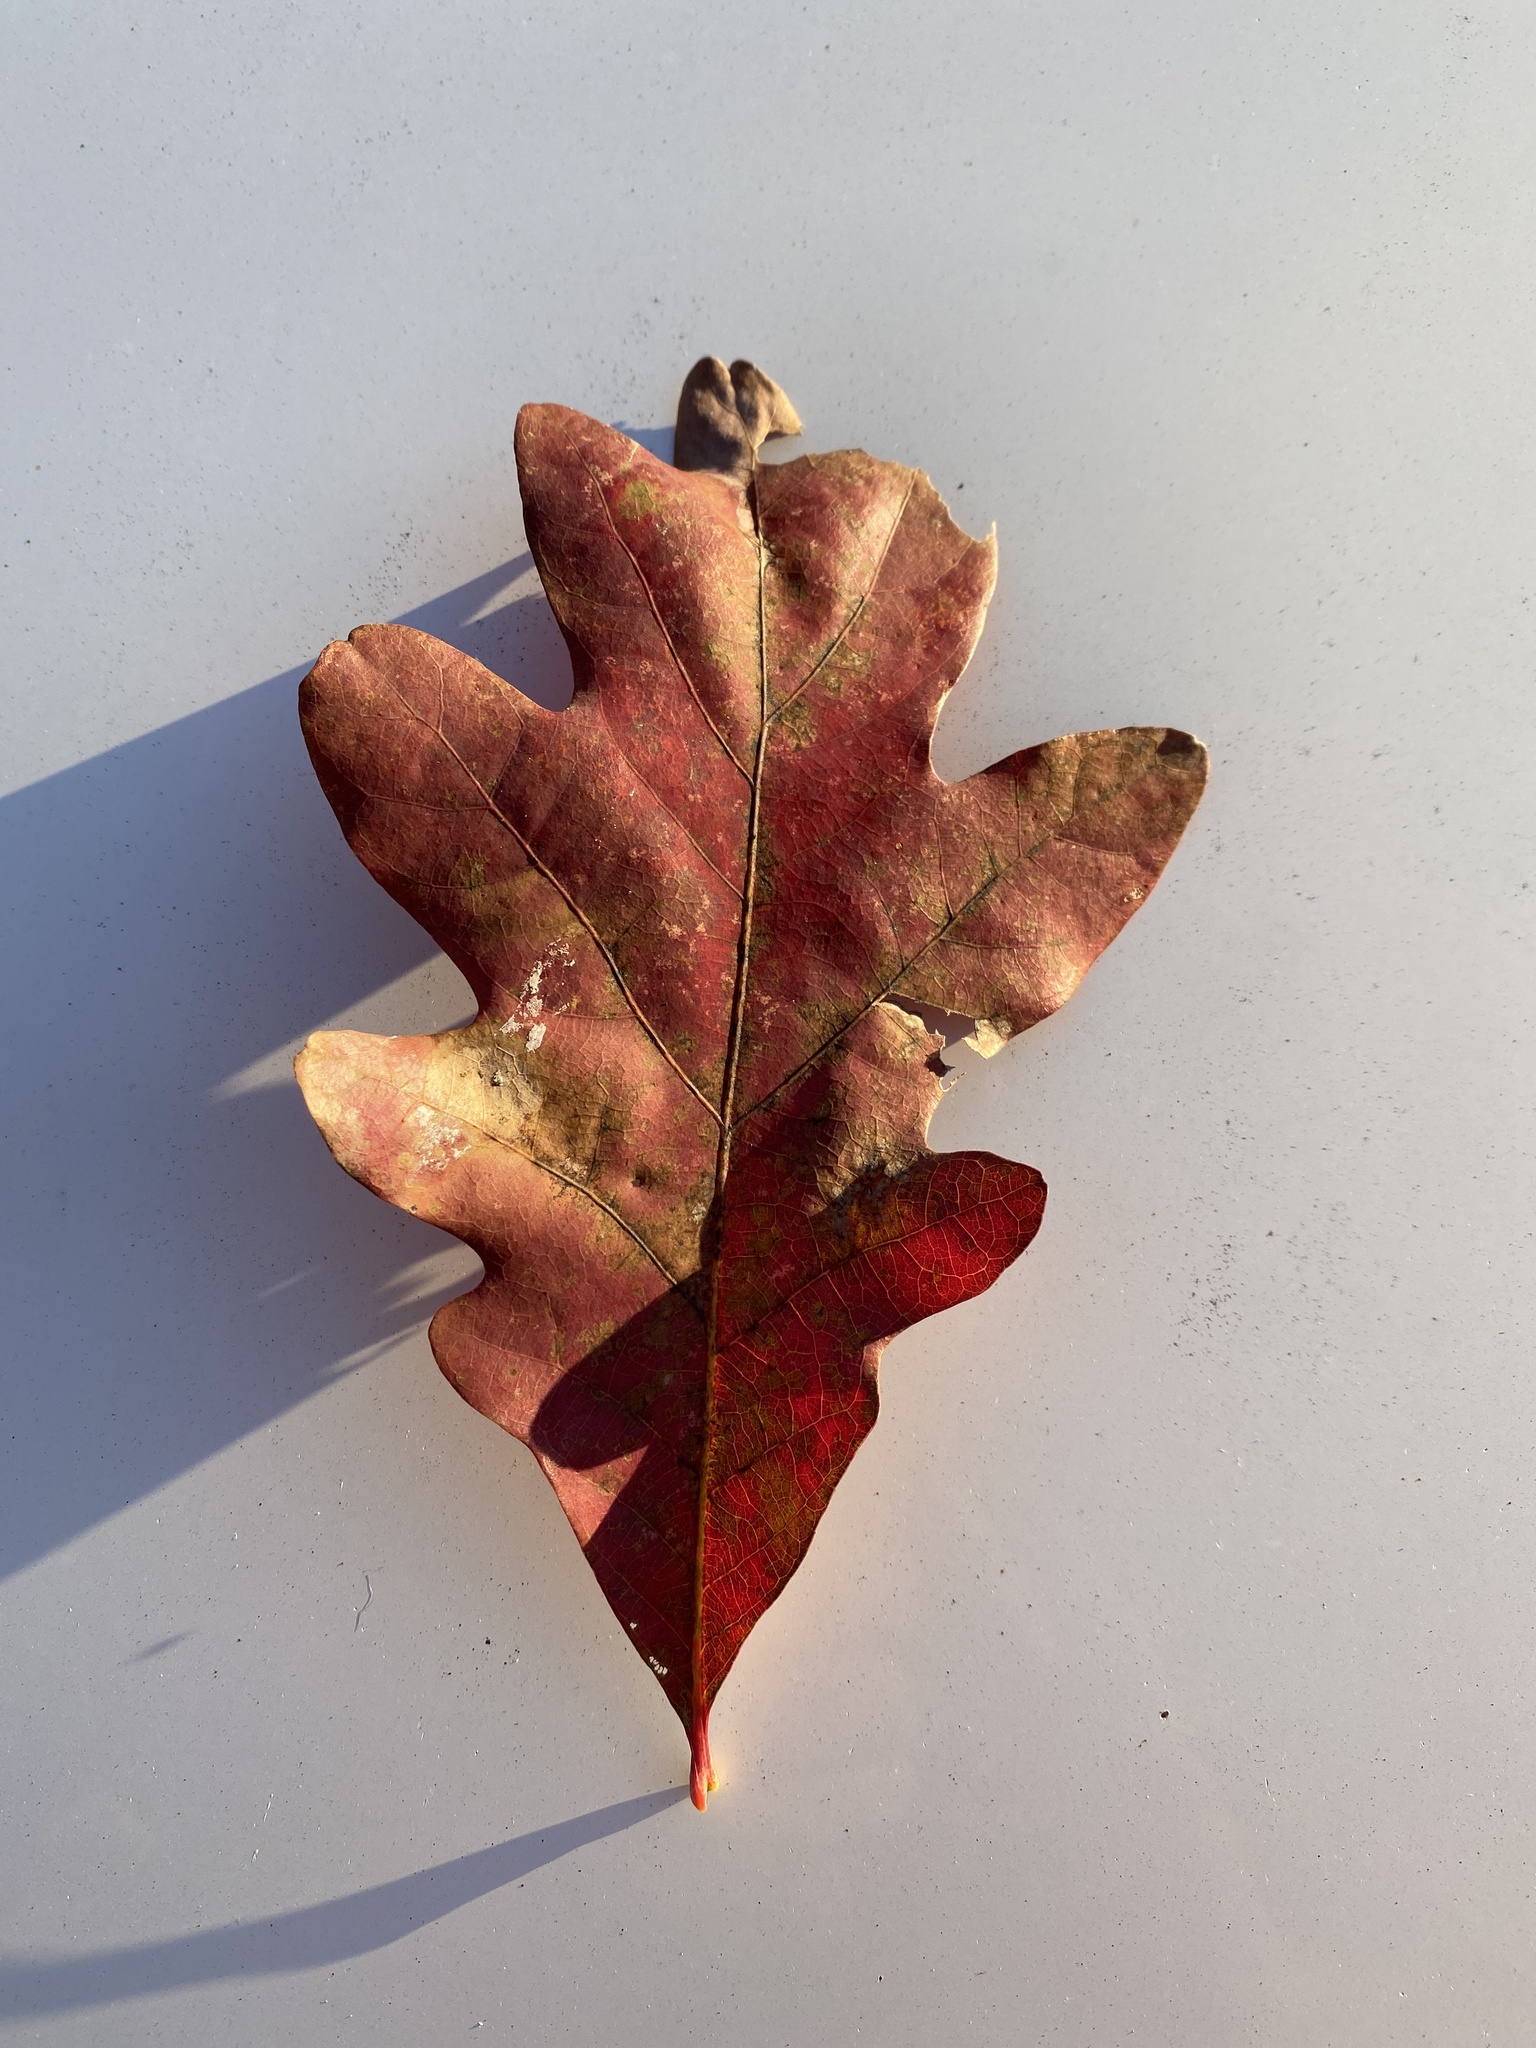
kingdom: Plantae
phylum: Tracheophyta
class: Magnoliopsida
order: Fagales
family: Fagaceae
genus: Quercus
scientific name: Quercus alba
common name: White oak
